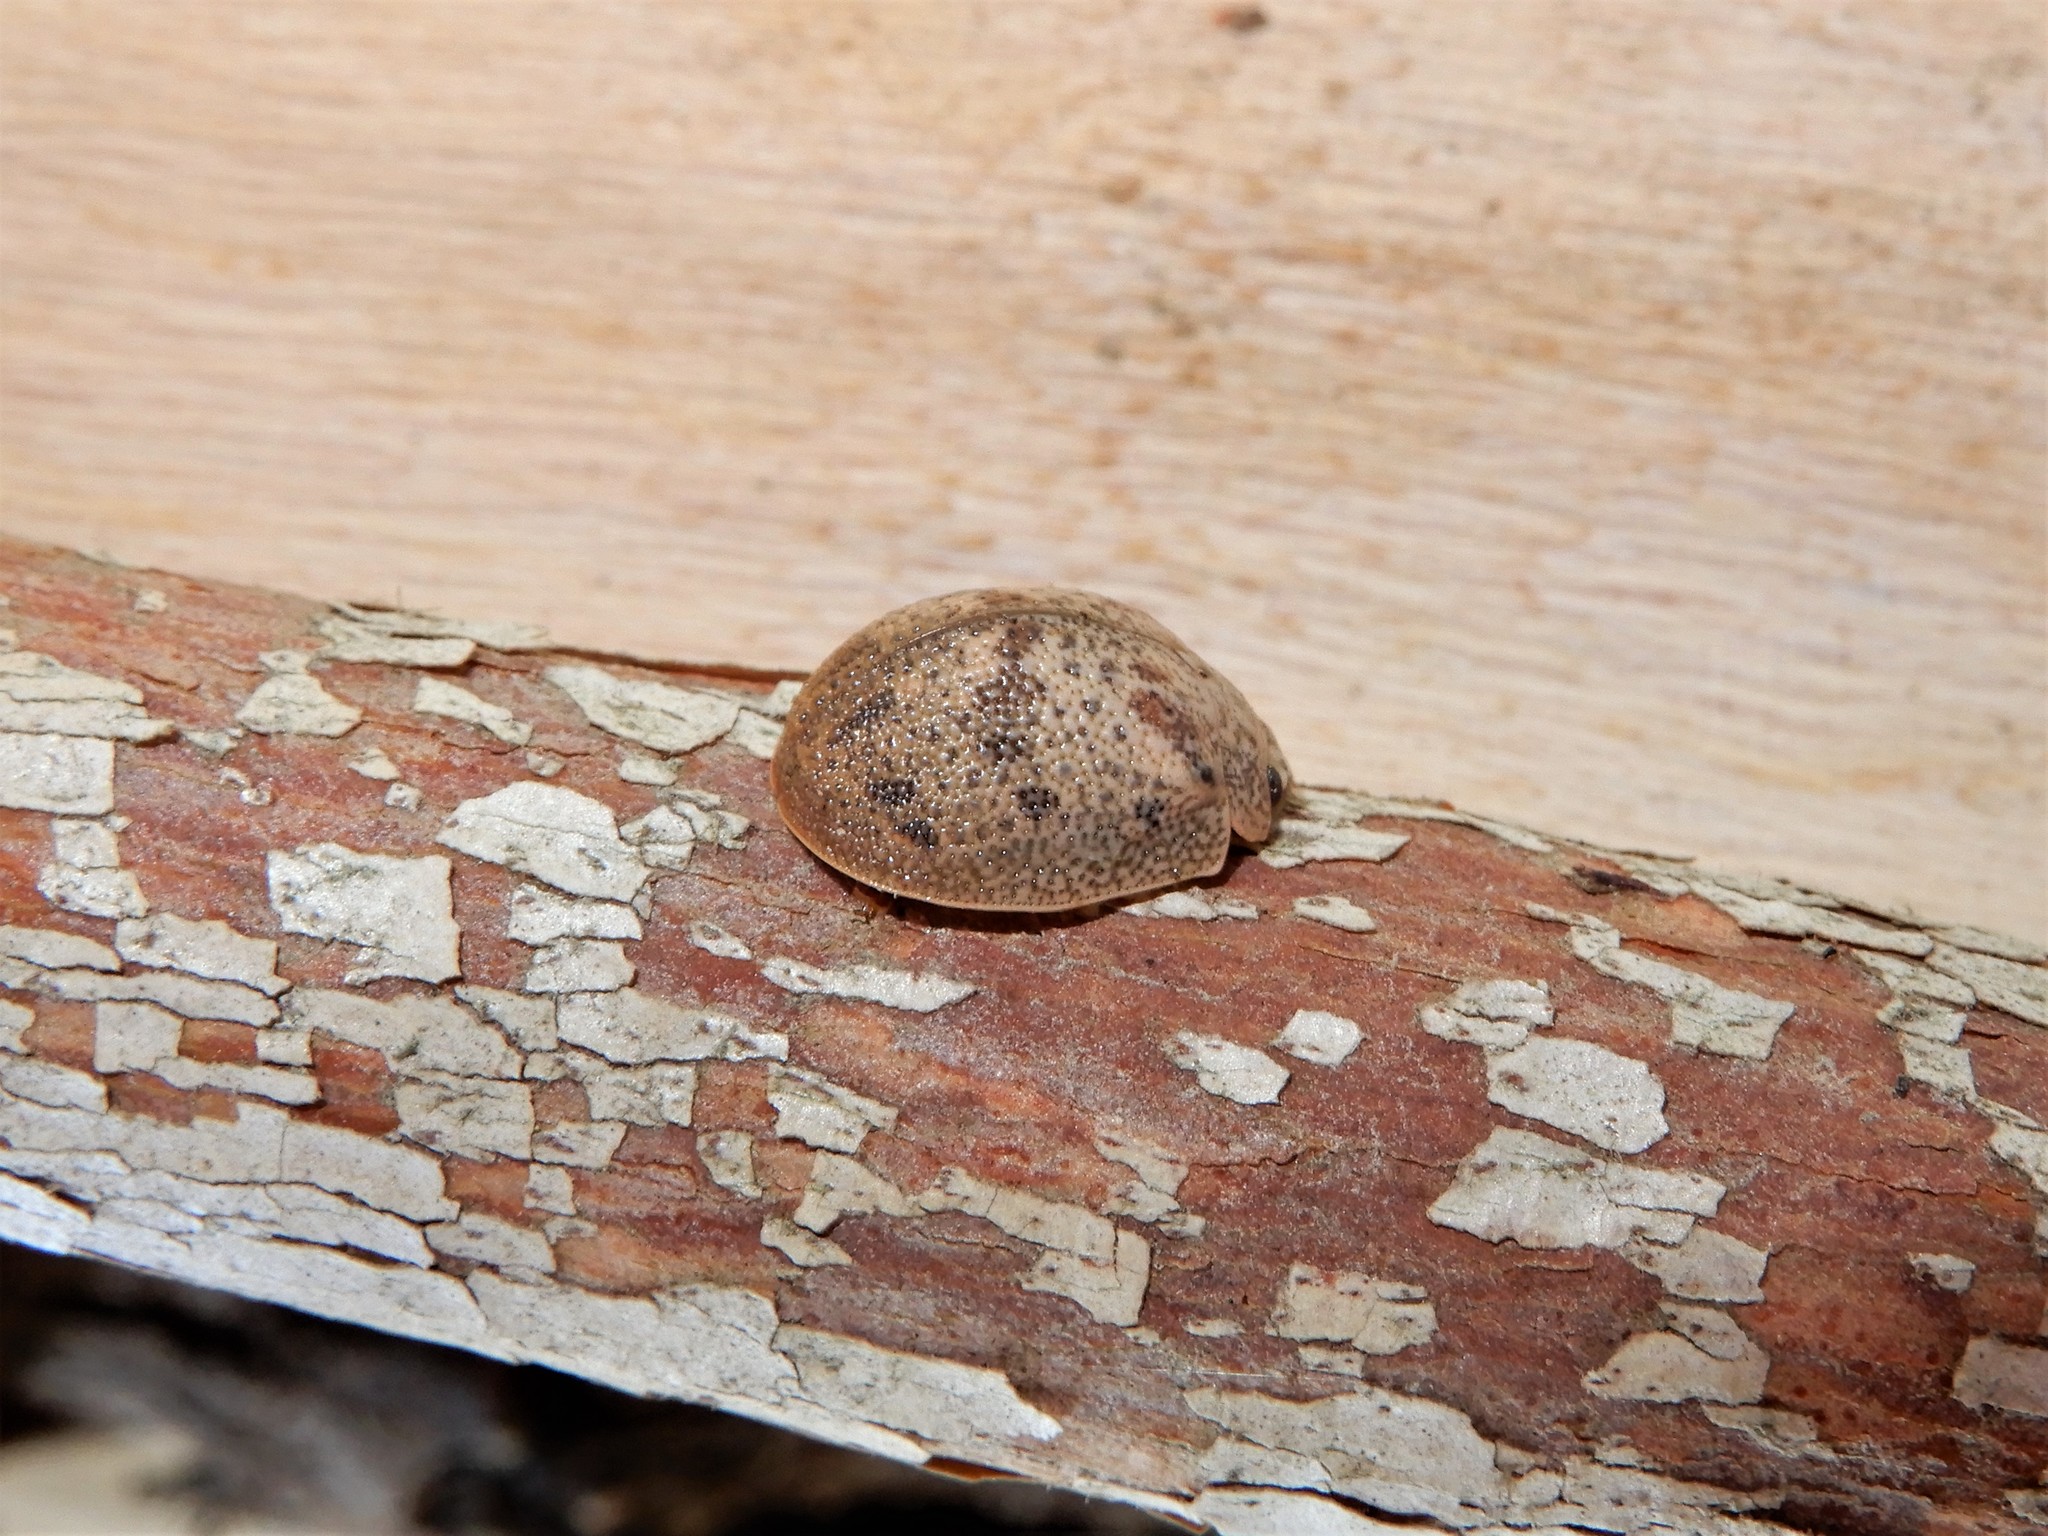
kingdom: Animalia
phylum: Arthropoda
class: Insecta
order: Coleoptera
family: Chrysomelidae
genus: Paropsis
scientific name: Paropsis charybdis
